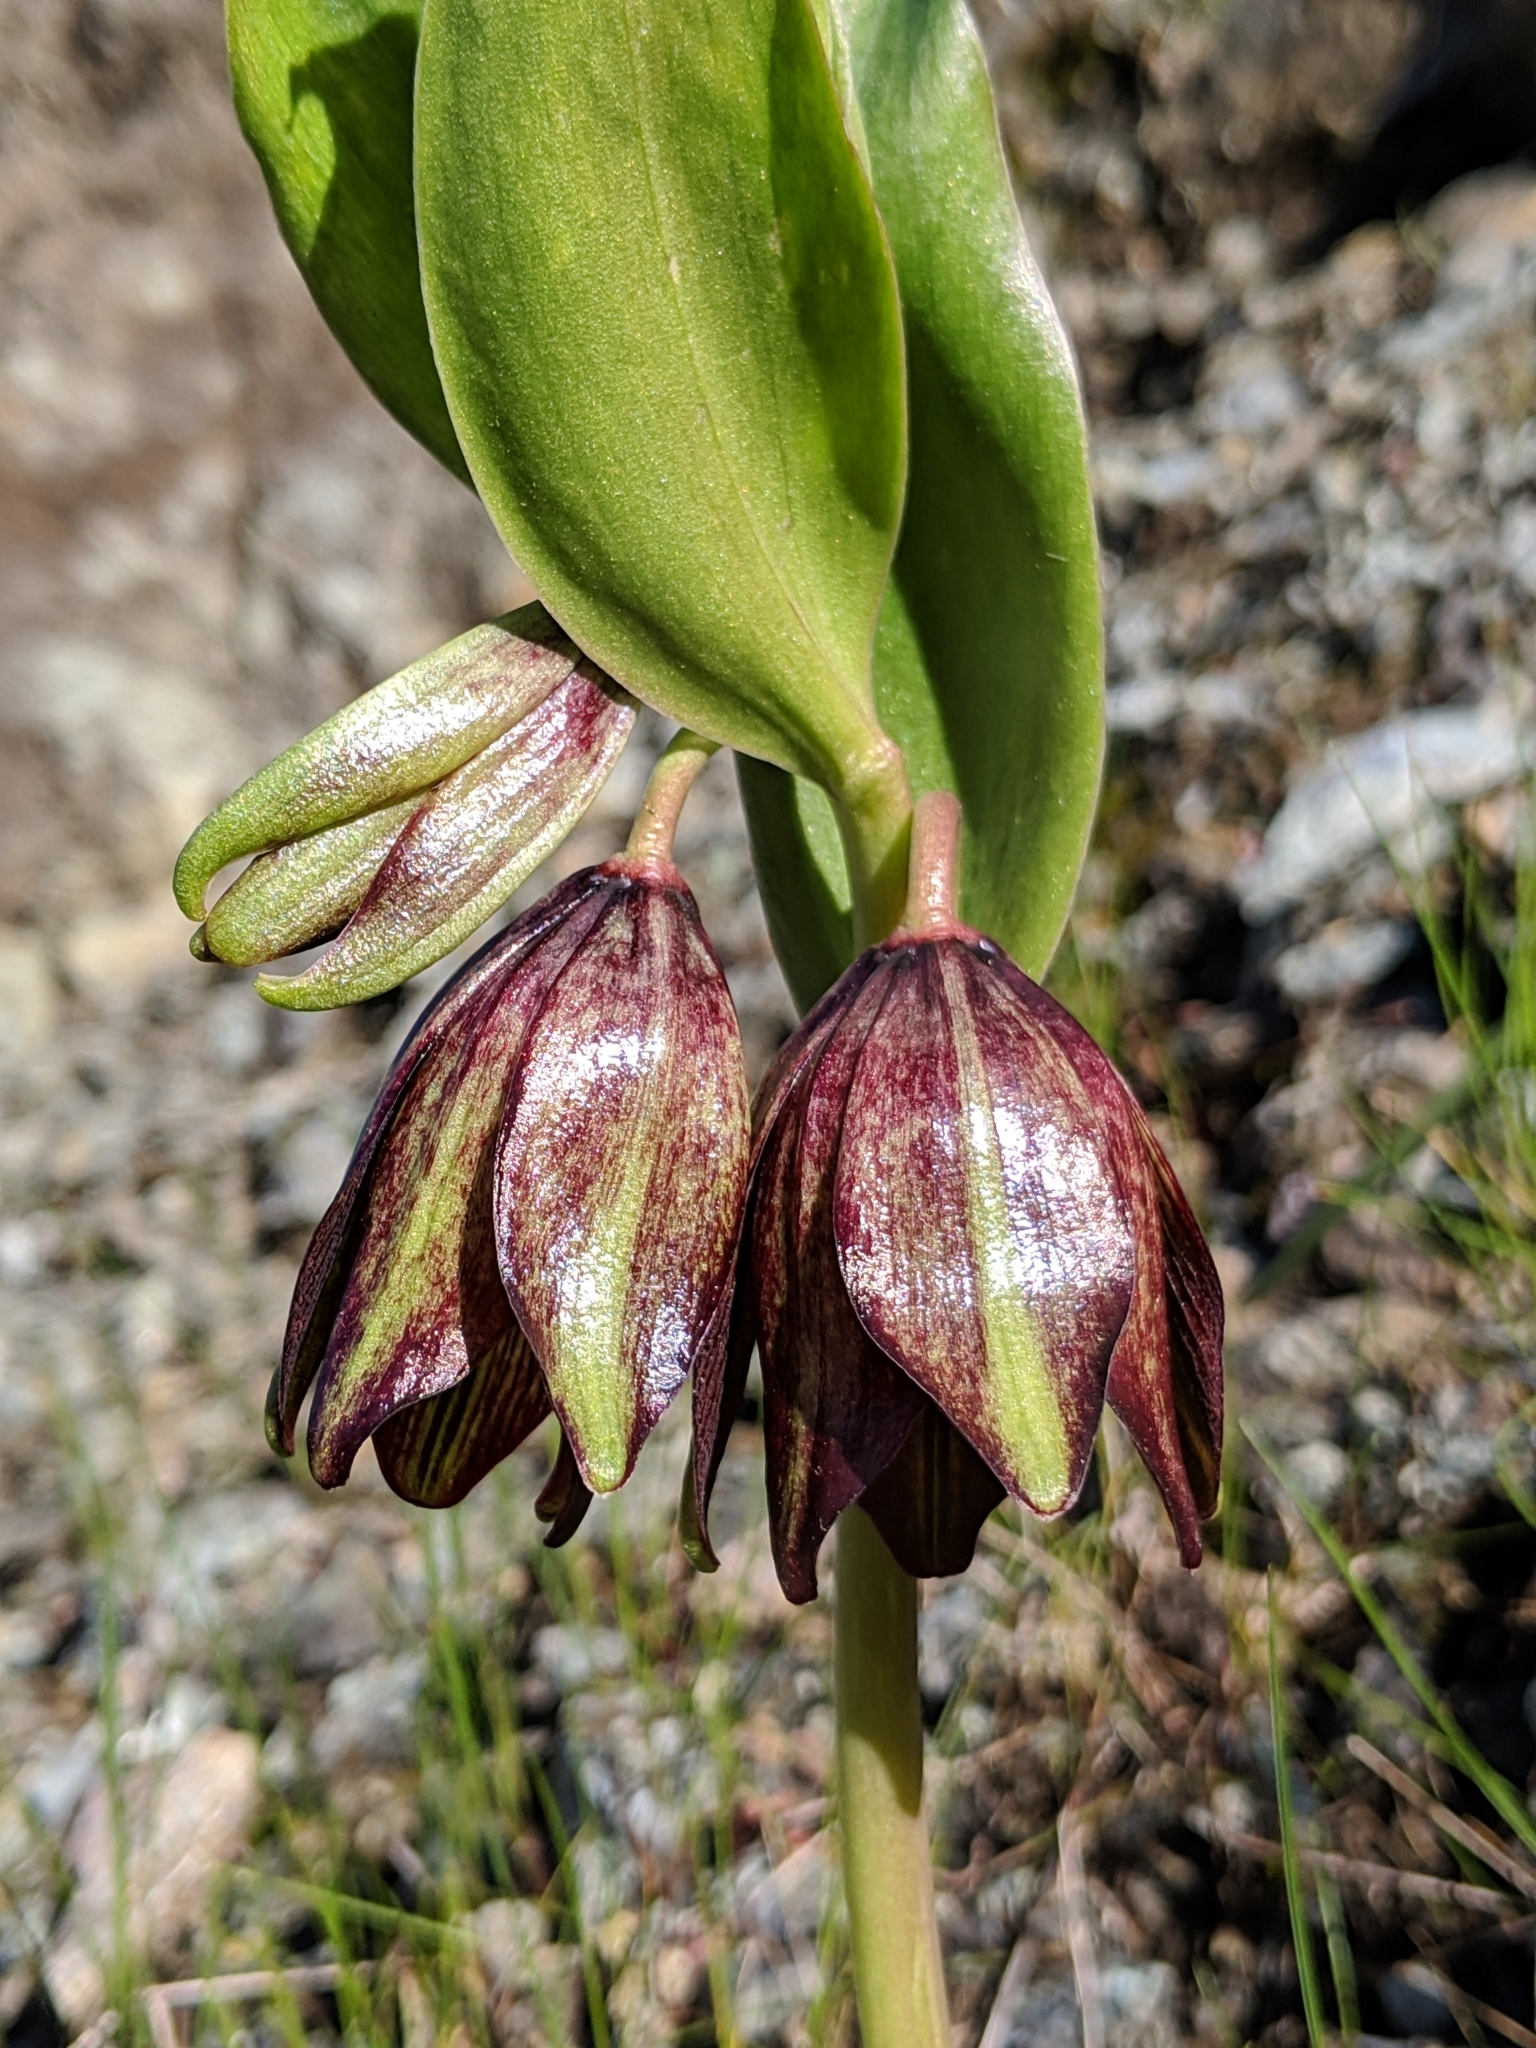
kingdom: Plantae
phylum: Tracheophyta
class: Liliopsida
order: Liliales
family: Liliaceae
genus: Fritillaria
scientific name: Fritillaria biflora
